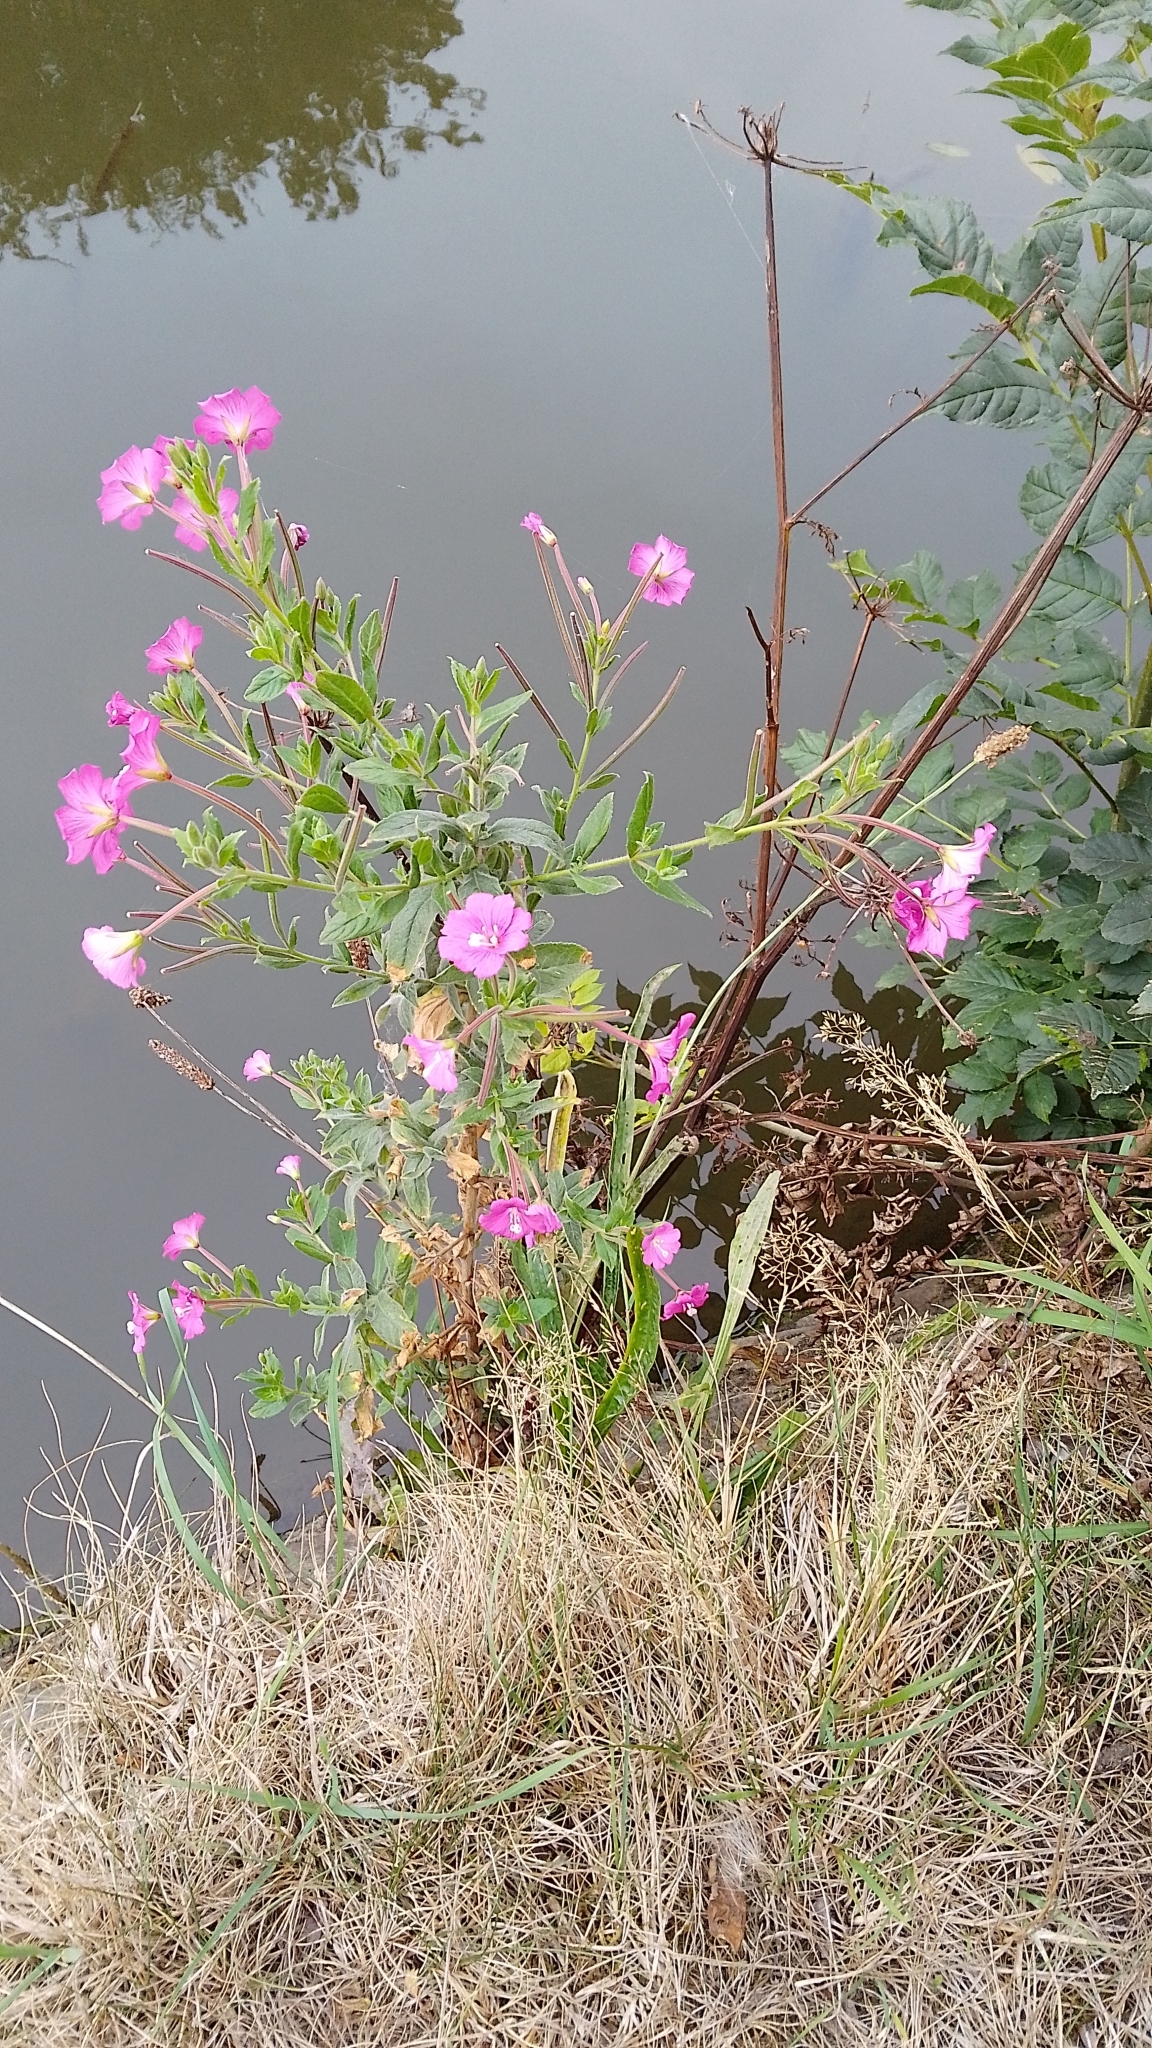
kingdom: Plantae
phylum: Tracheophyta
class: Magnoliopsida
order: Myrtales
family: Onagraceae
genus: Epilobium
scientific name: Epilobium hirsutum
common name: Great willowherb
